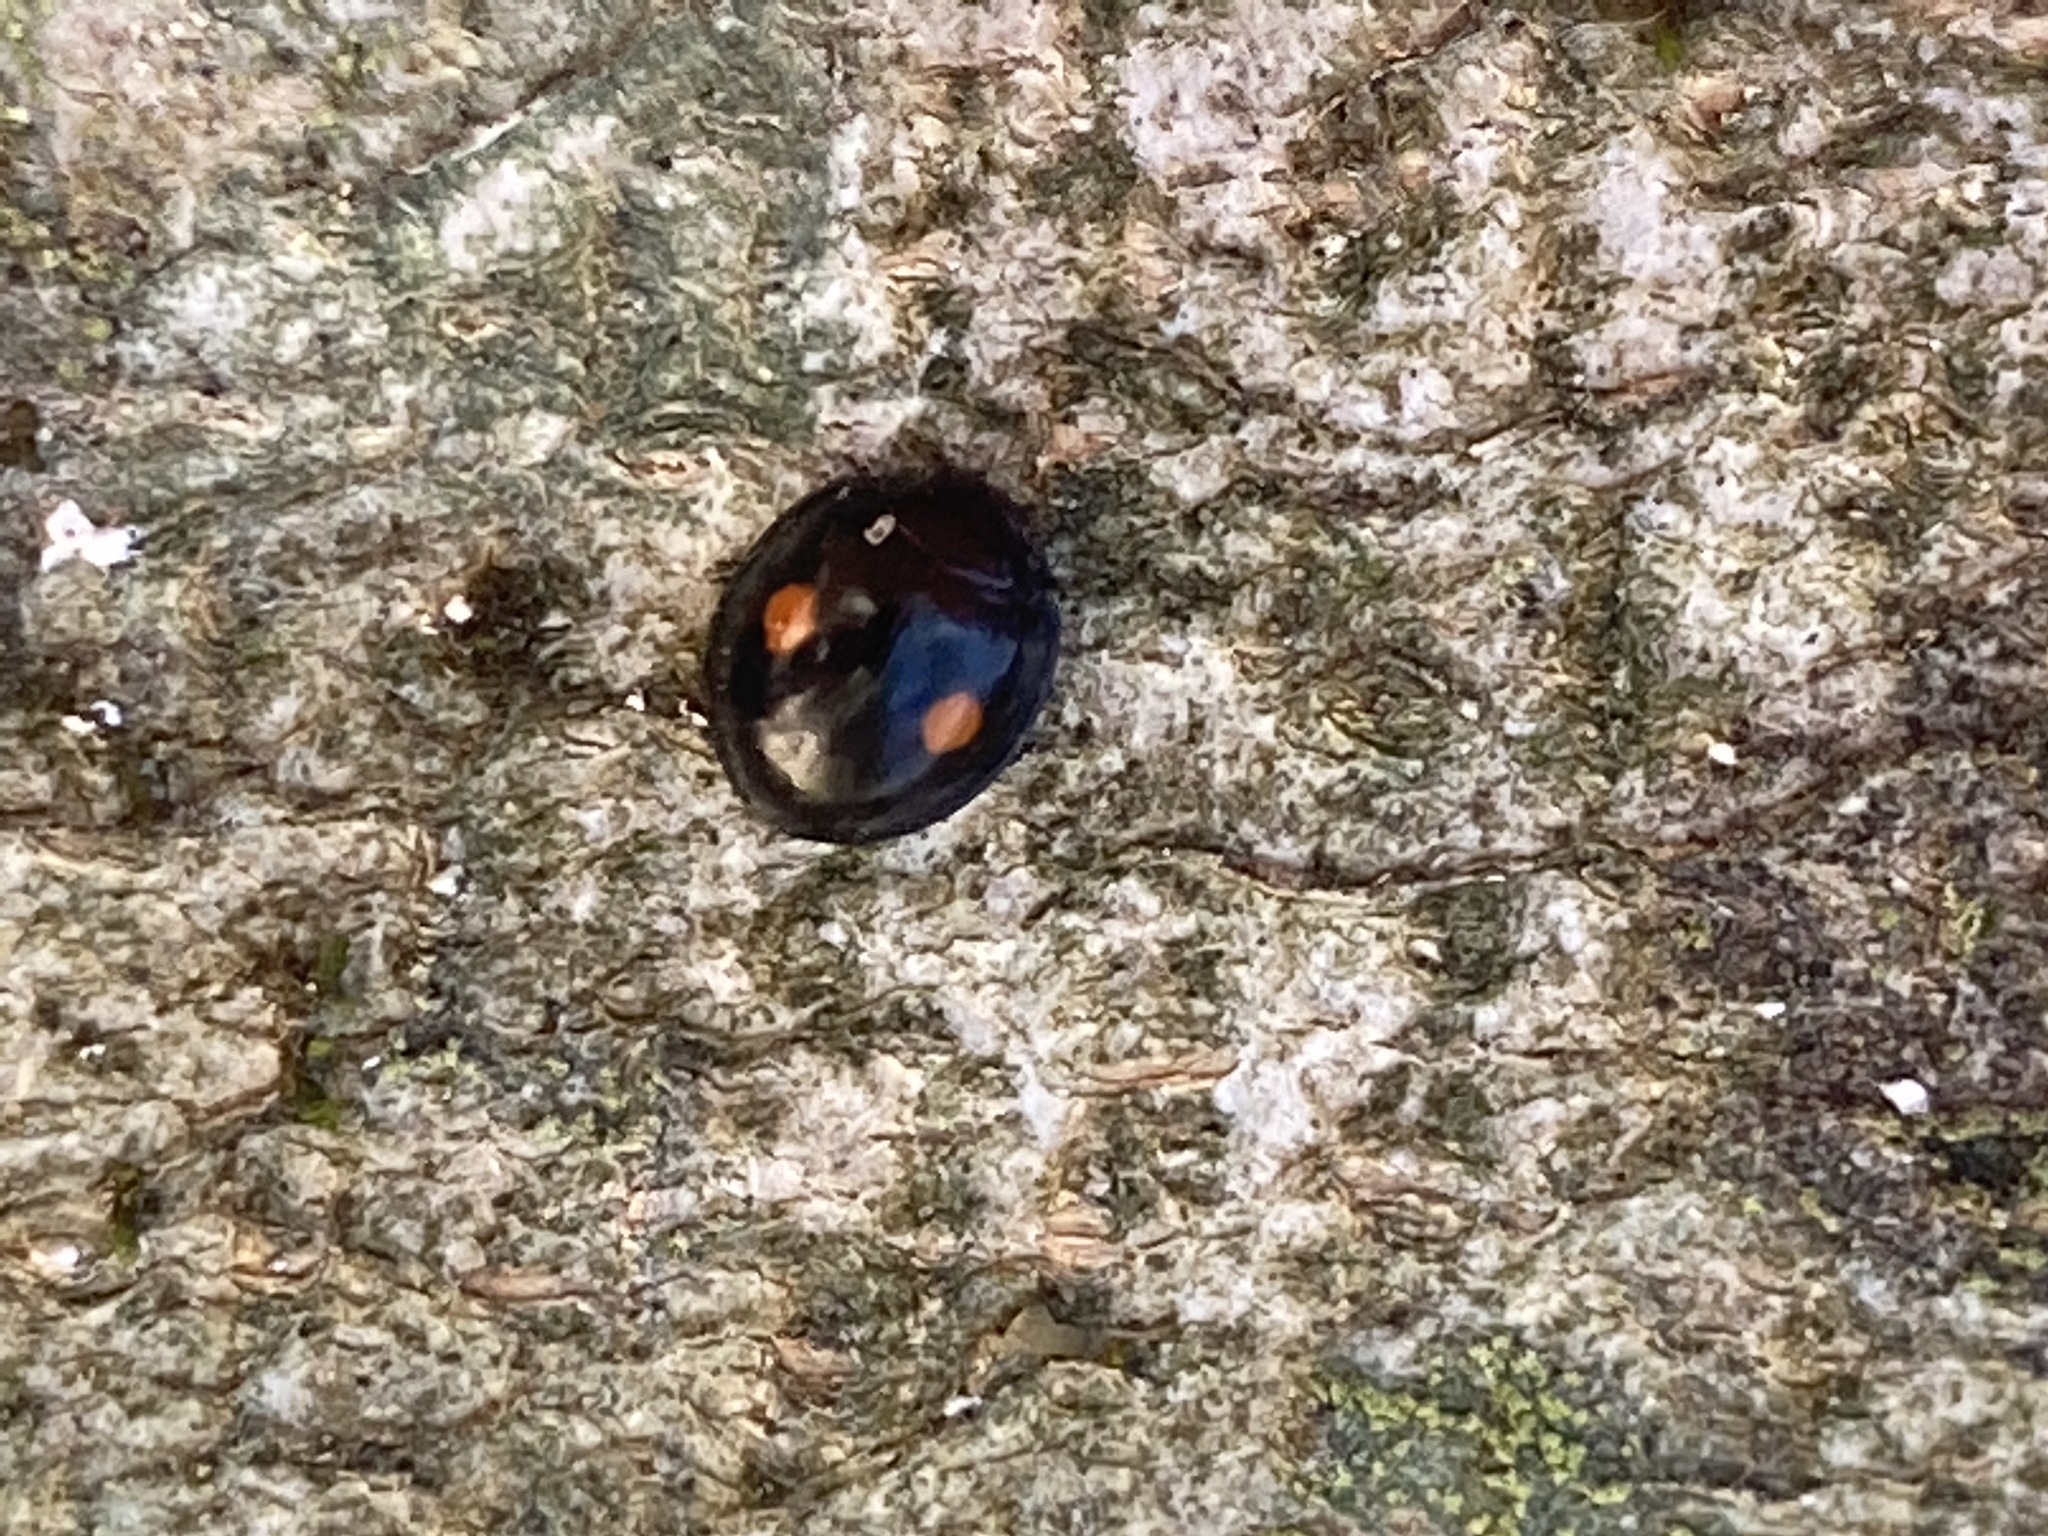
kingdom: Animalia
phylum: Arthropoda
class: Insecta
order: Coleoptera
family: Coccinellidae
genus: Chilocorus
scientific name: Chilocorus stigma
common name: Twicestabbed lady beetle
